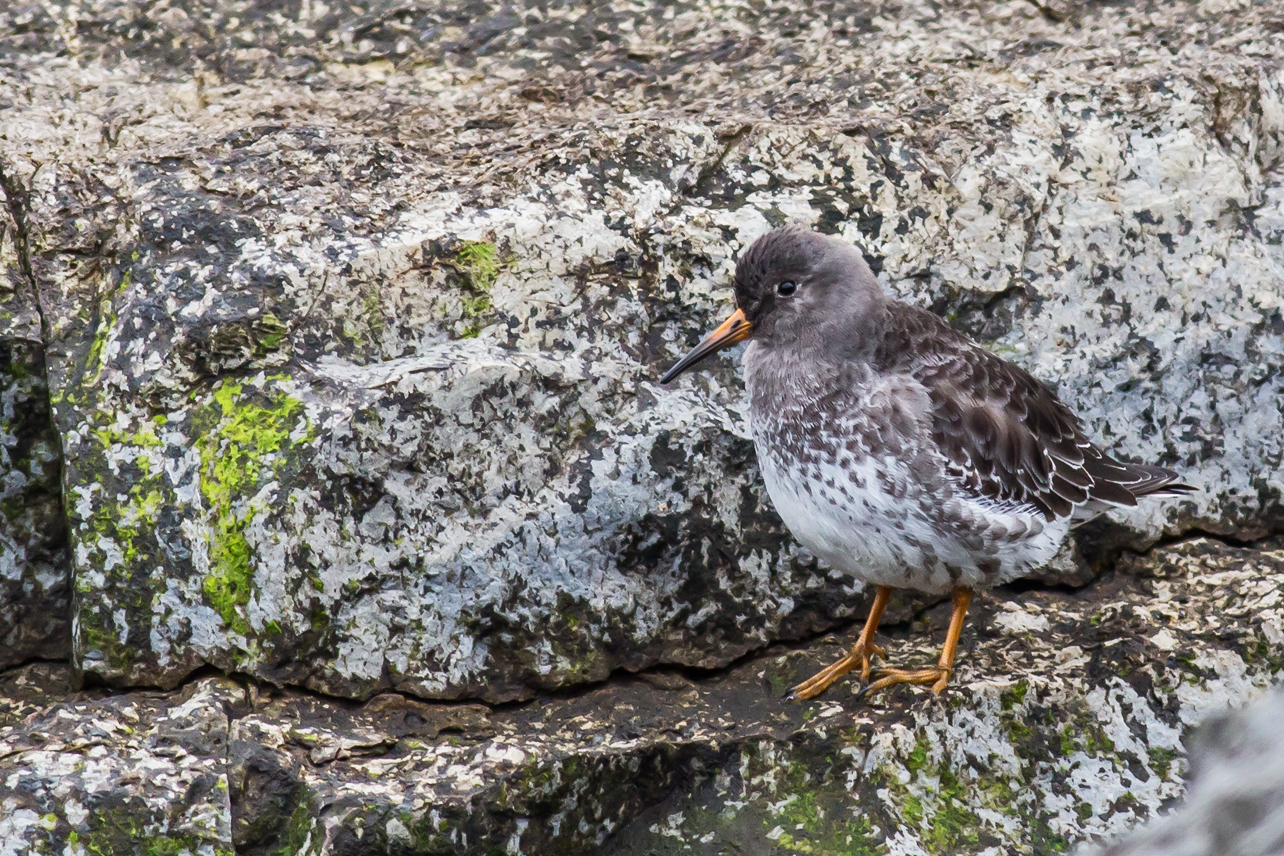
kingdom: Animalia
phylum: Chordata
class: Aves
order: Charadriiformes
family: Scolopacidae
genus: Calidris
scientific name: Calidris maritima
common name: Purple sandpiper
